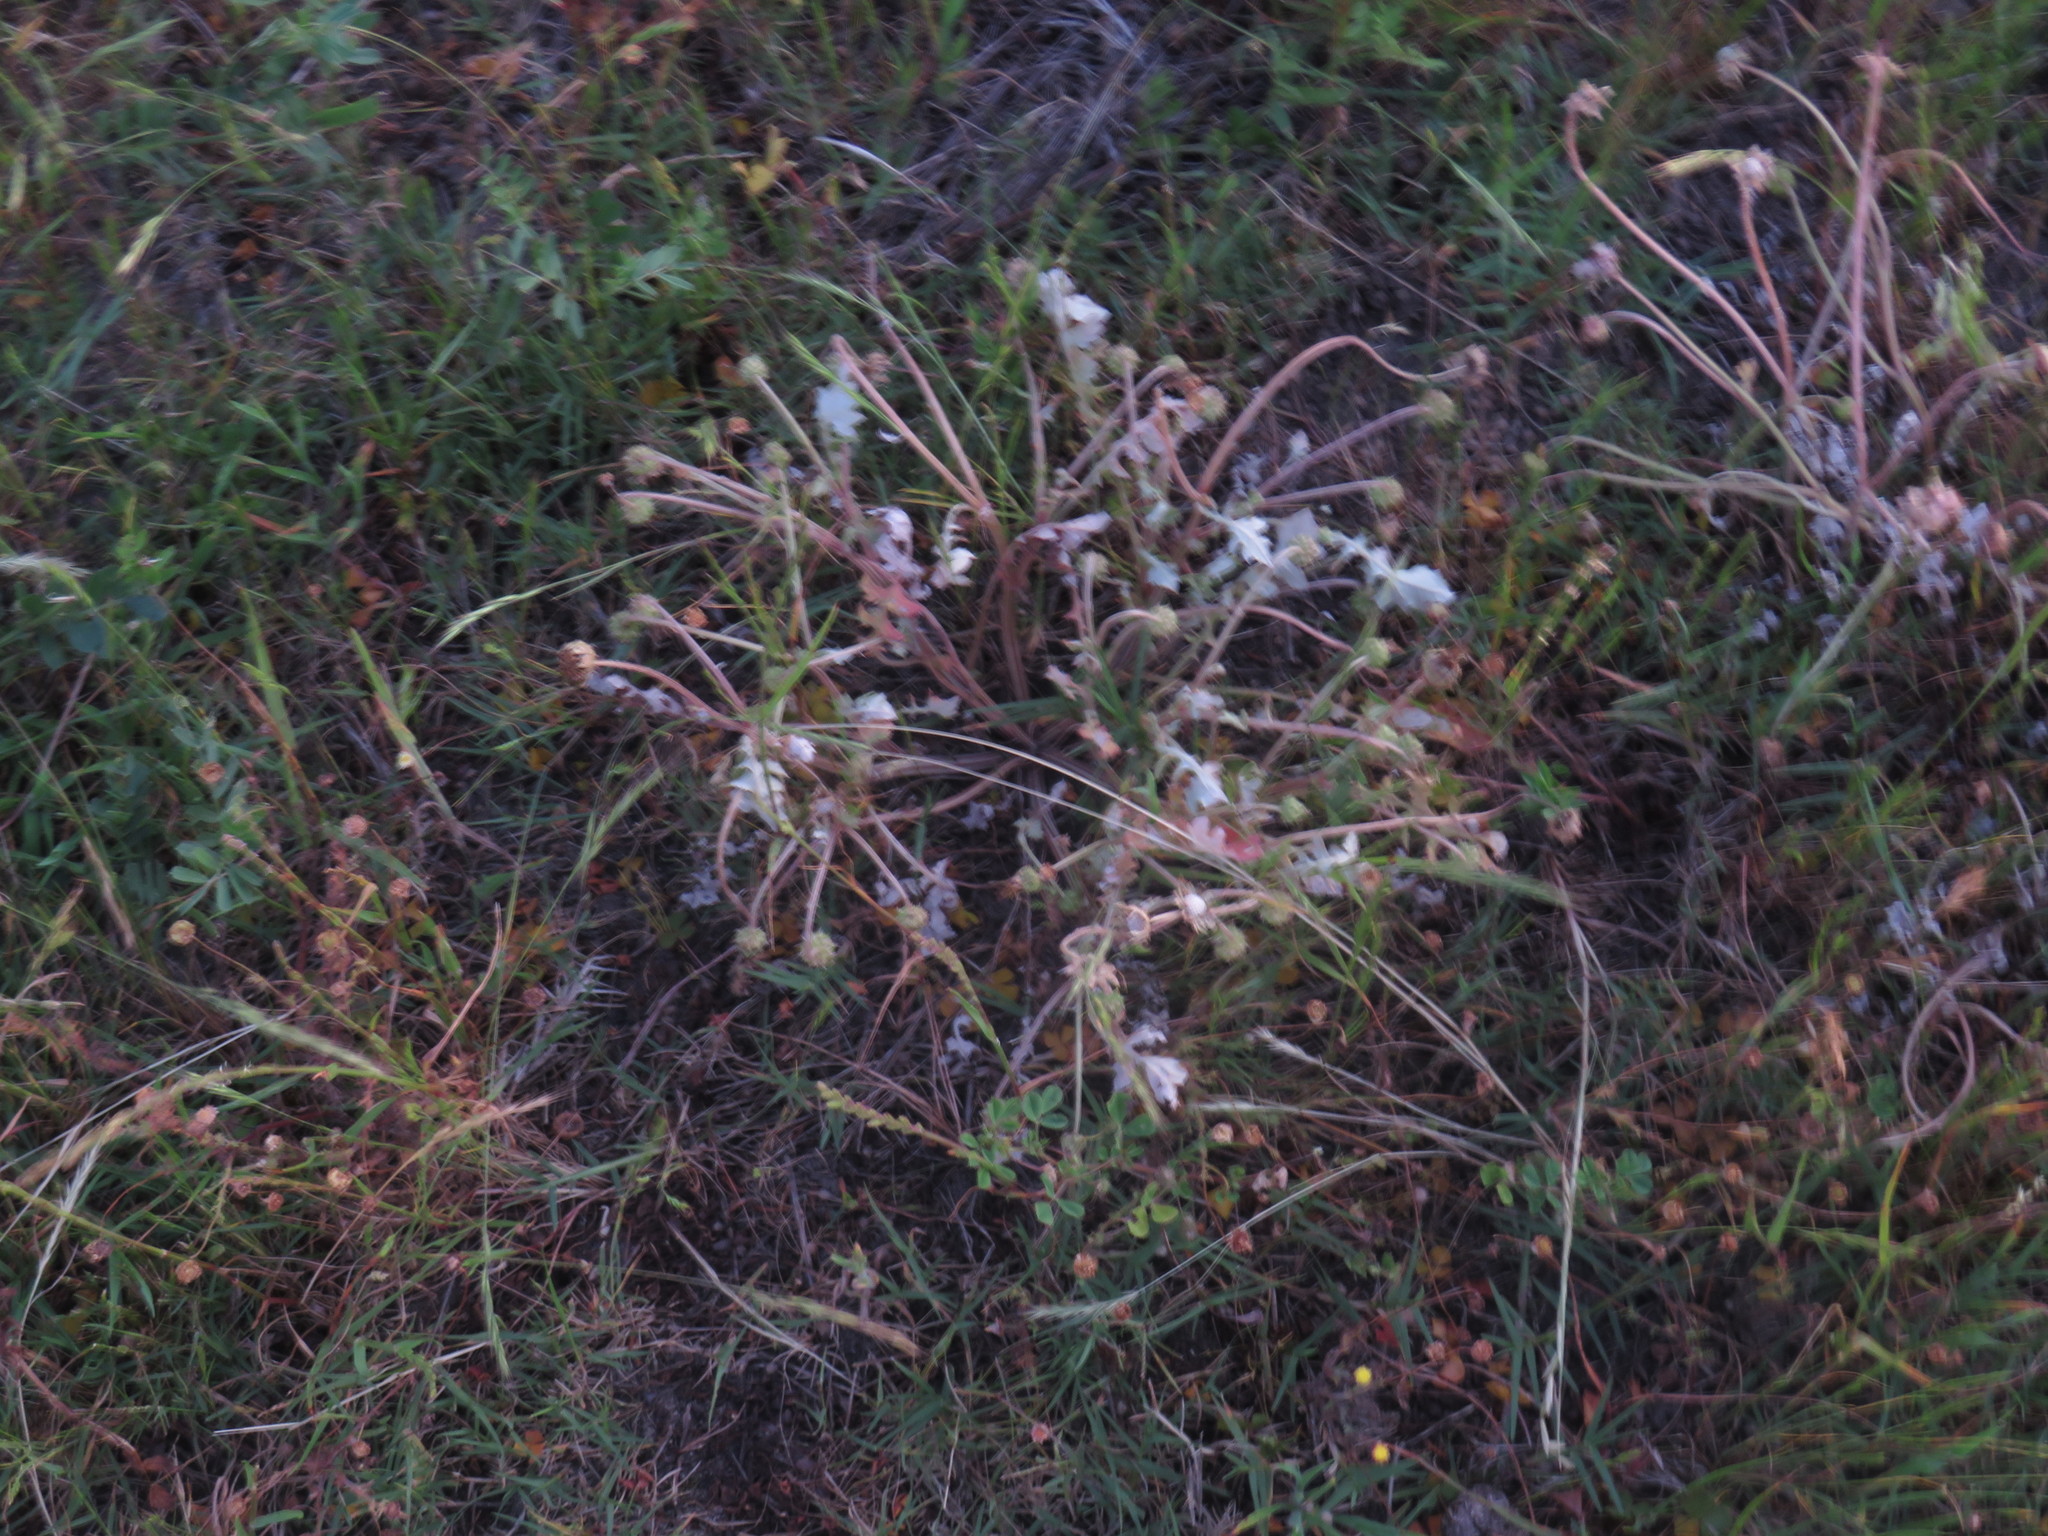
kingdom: Plantae
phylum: Tracheophyta
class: Magnoliopsida
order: Asterales
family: Asteraceae
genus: Arctotheca
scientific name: Arctotheca calendula
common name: Capeweed
